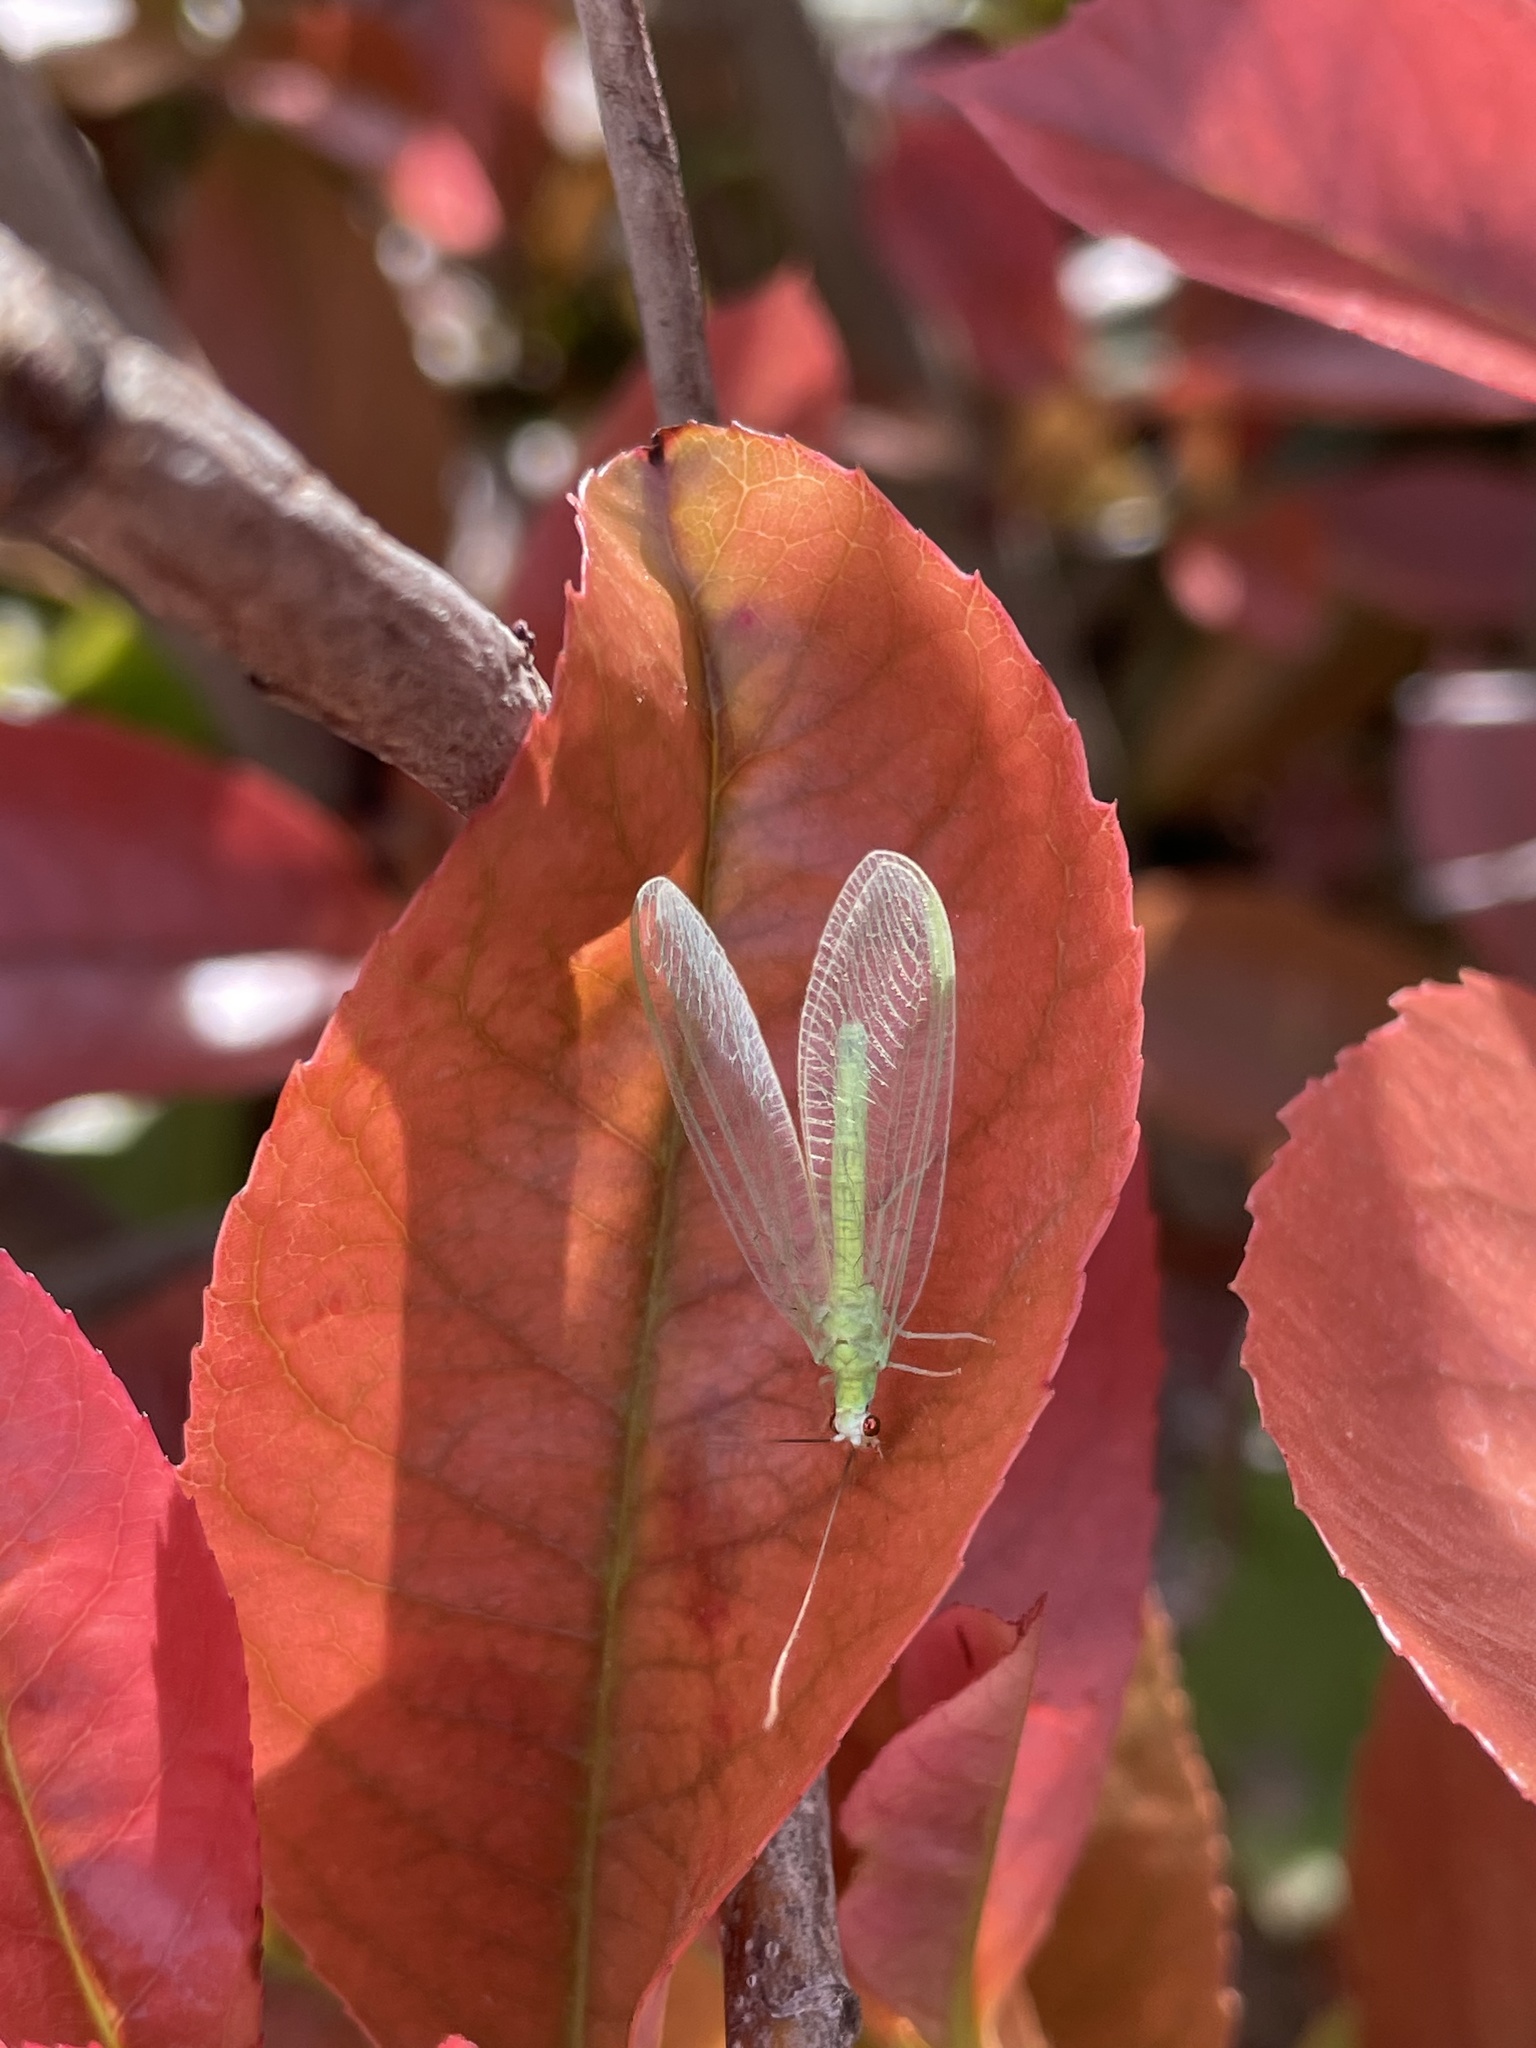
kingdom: Animalia
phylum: Arthropoda
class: Insecta
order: Neuroptera
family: Chrysopidae
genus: Chrysopa
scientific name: Chrysopa nigricornis
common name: Black-horned green lacewing
